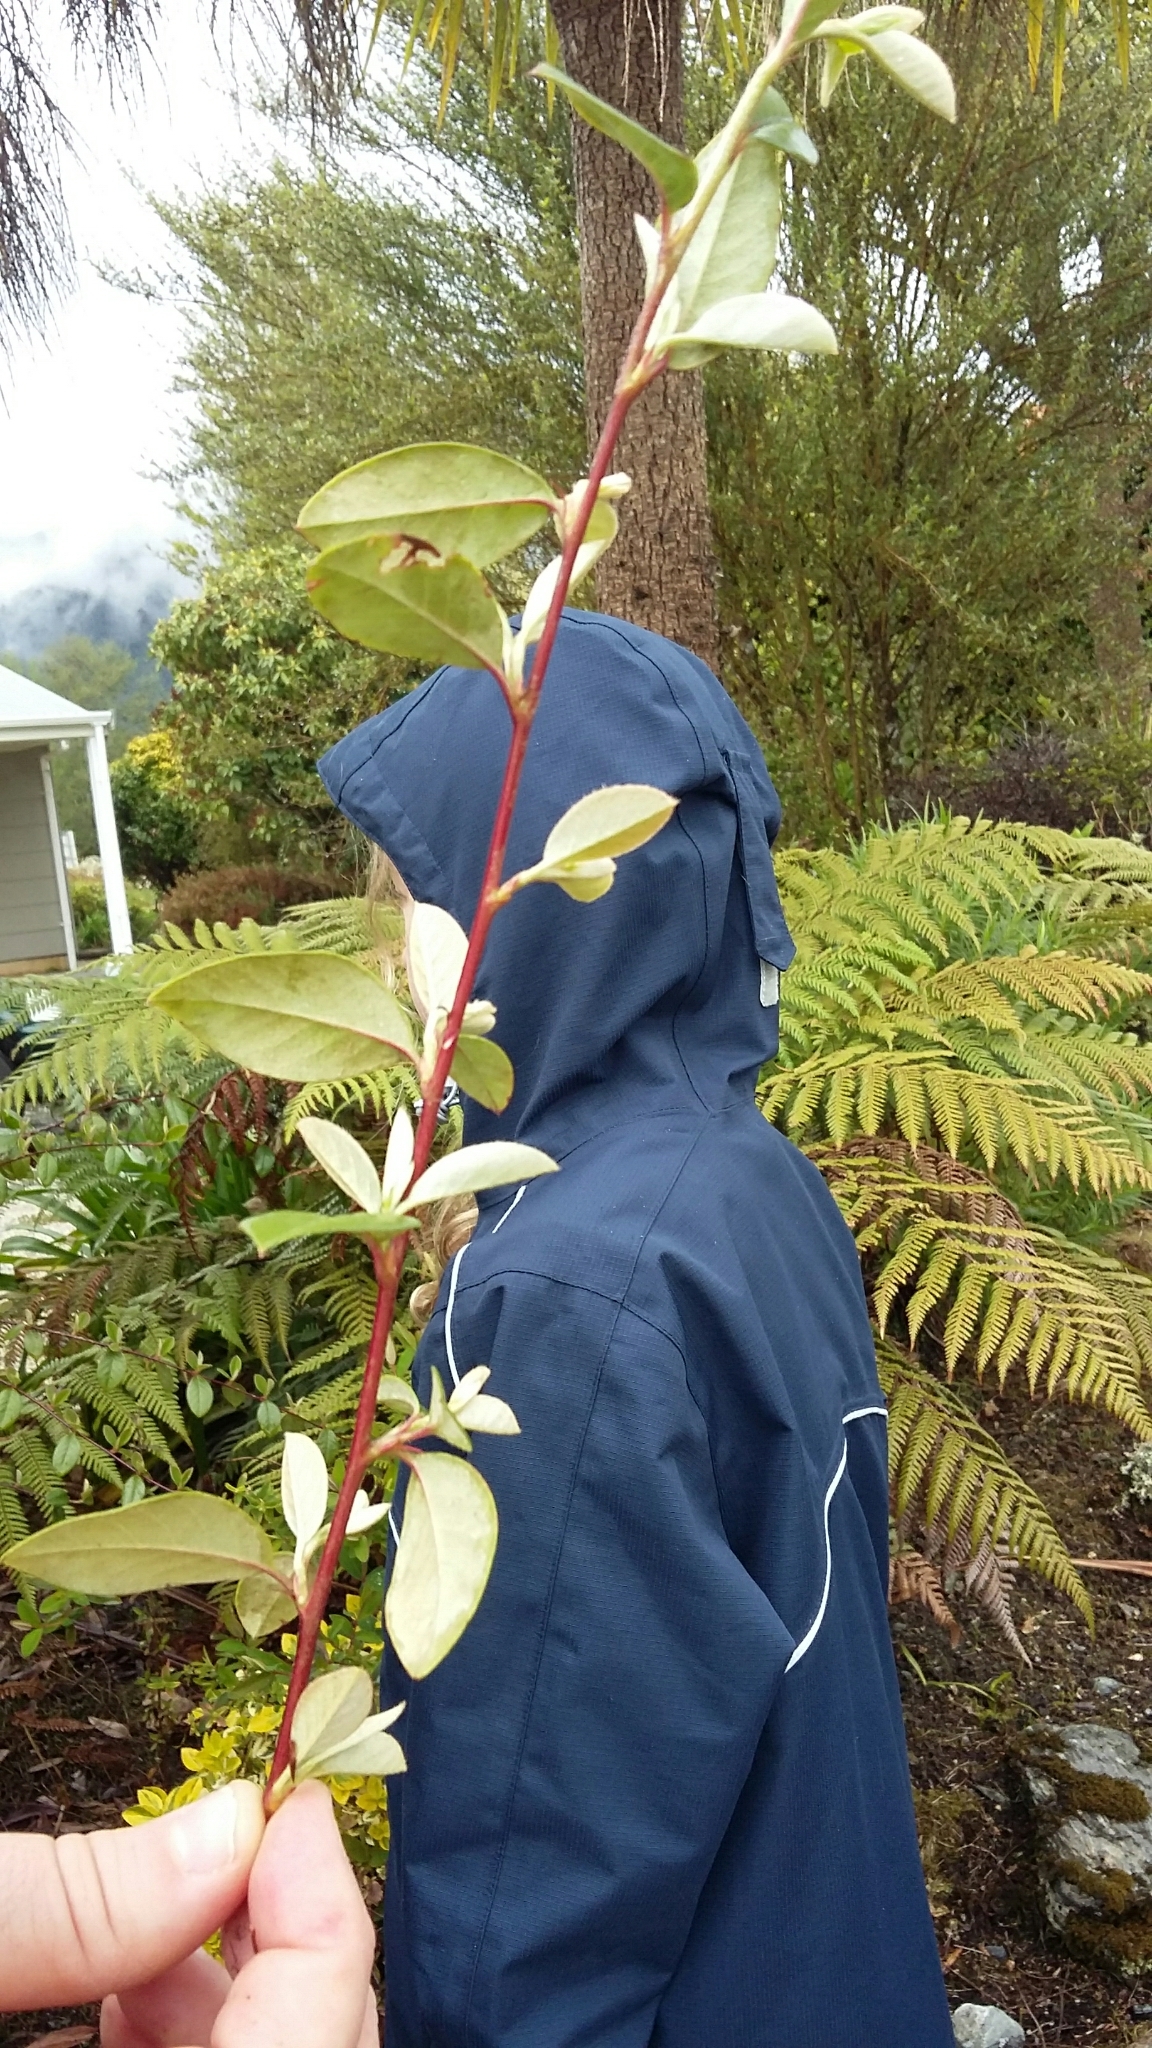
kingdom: Plantae
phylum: Tracheophyta
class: Magnoliopsida
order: Rosales
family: Rosaceae
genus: Cotoneaster
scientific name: Cotoneaster glaucophyllus
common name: Glaucous cotoneaster
